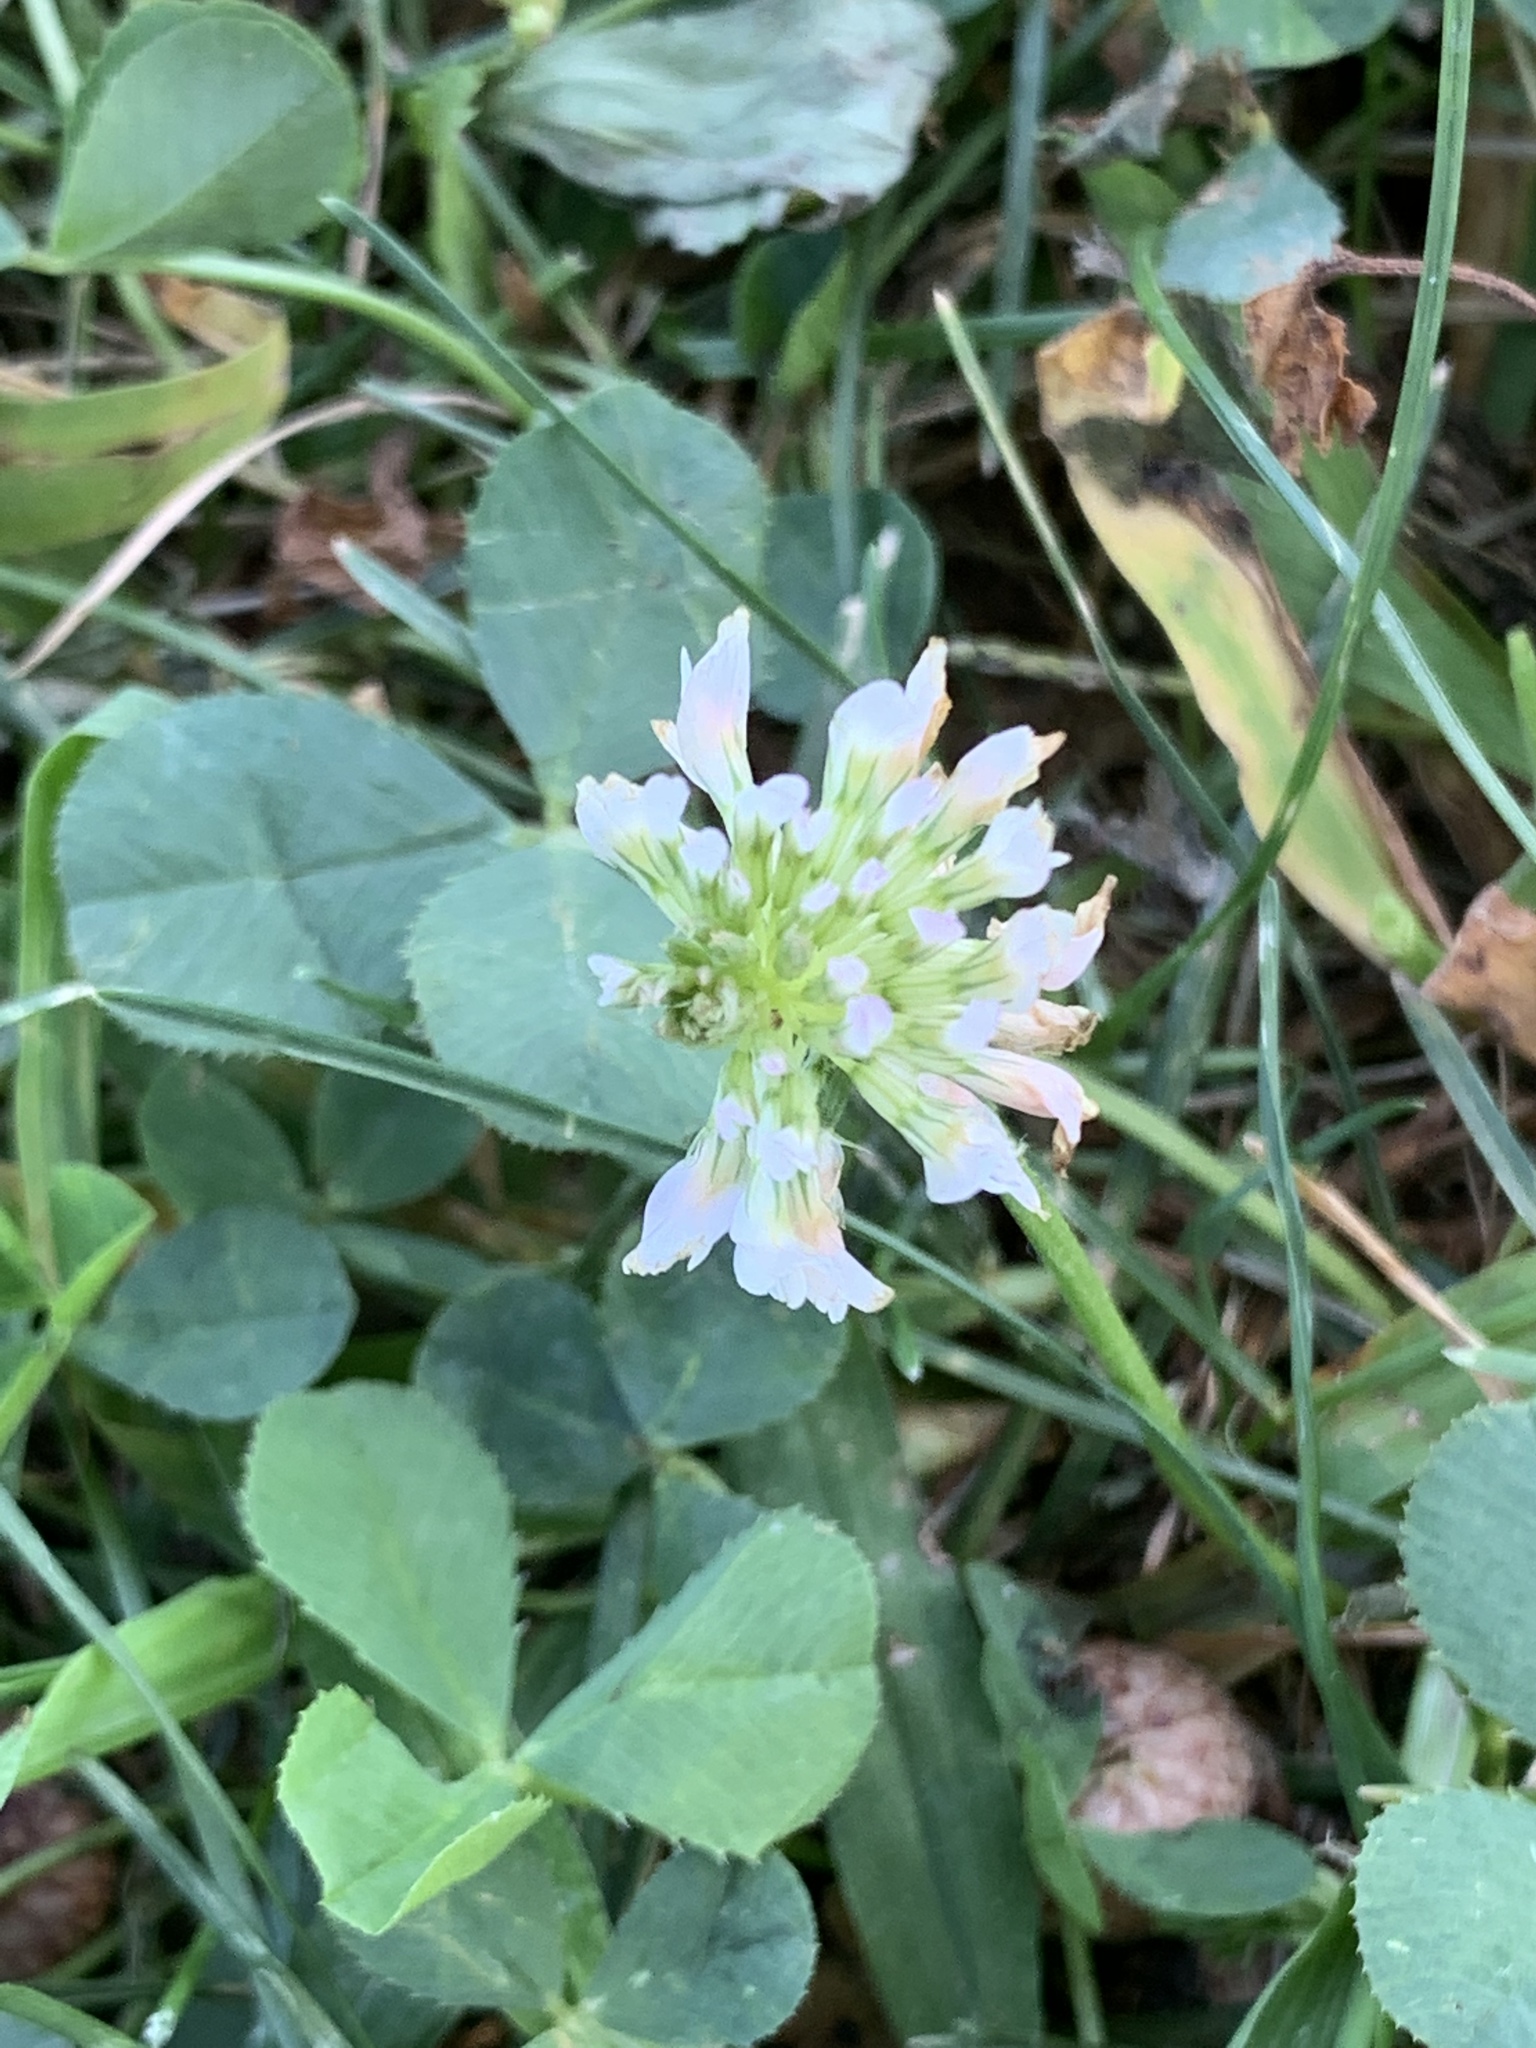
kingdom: Plantae
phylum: Tracheophyta
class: Magnoliopsida
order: Fabales
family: Fabaceae
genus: Trifolium
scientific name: Trifolium repens
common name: White clover
